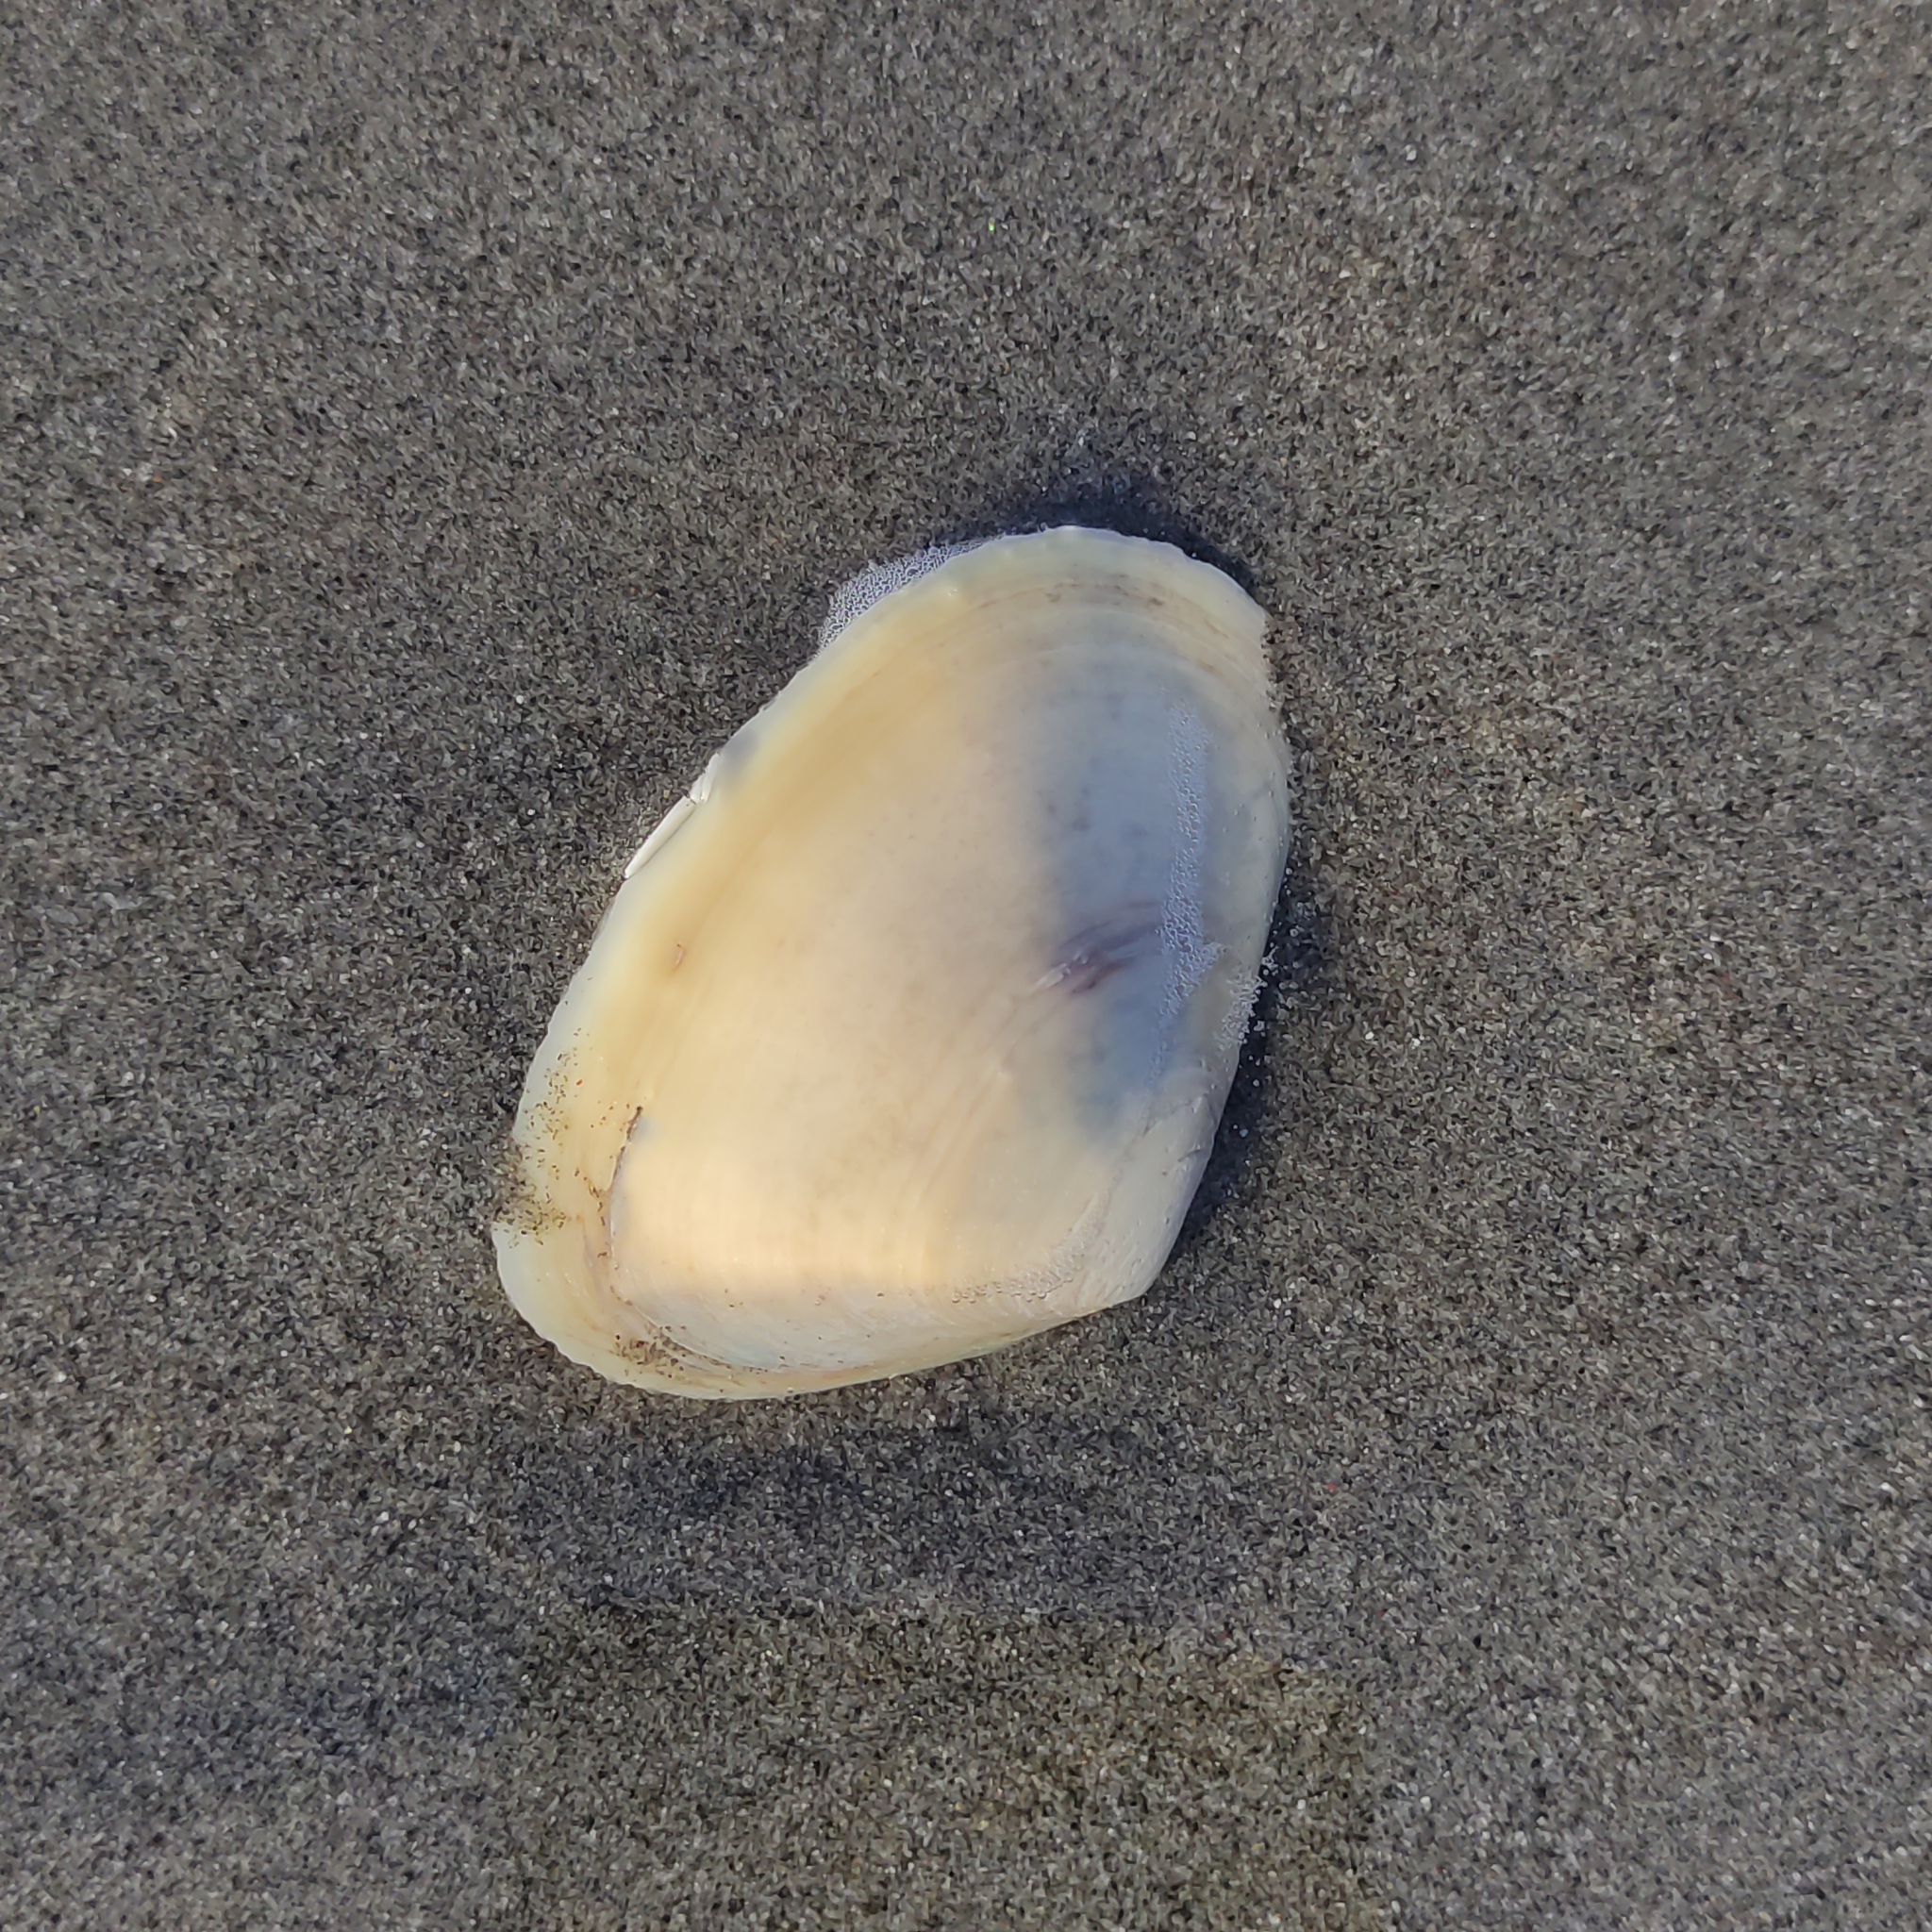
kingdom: Animalia
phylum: Mollusca
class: Bivalvia
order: Venerida
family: Mesodesmatidae
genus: Paphies
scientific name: Paphies donacina
